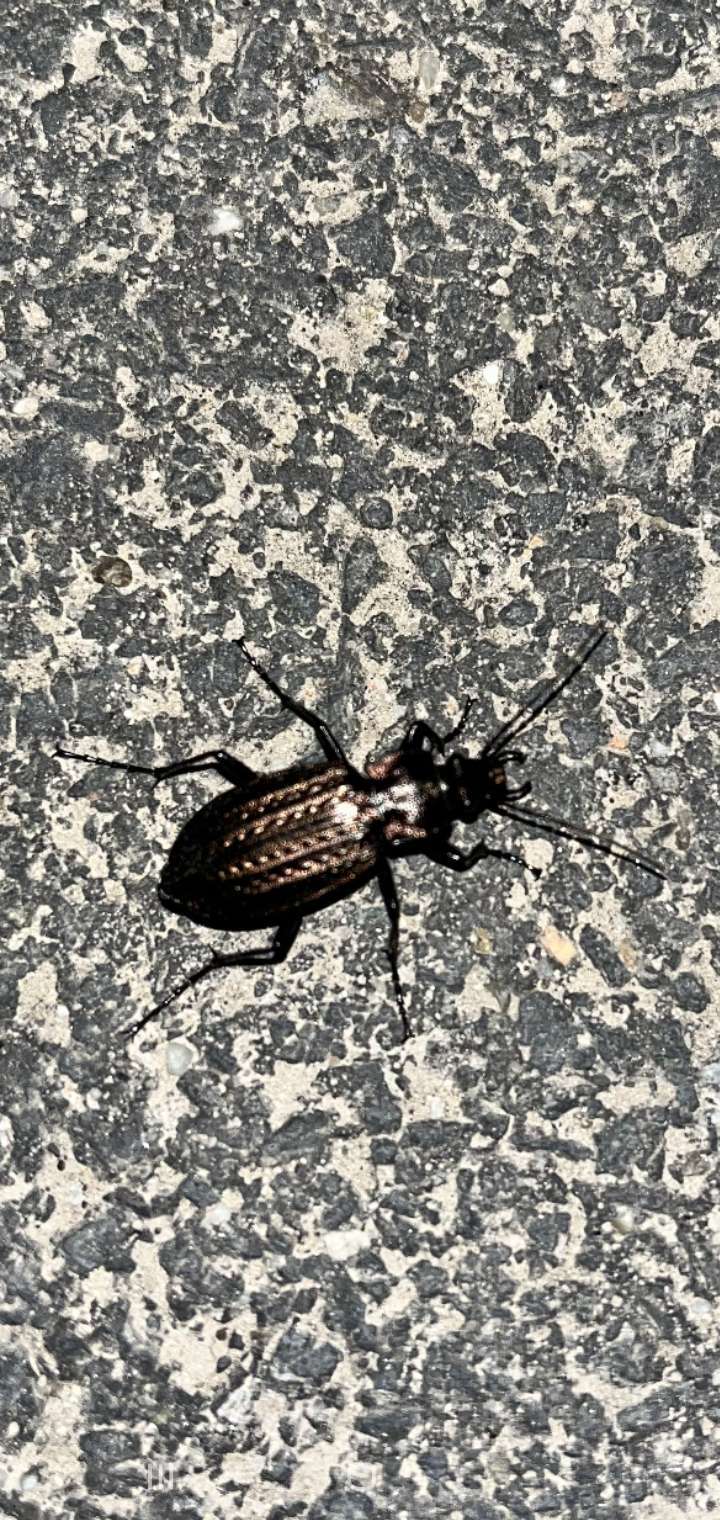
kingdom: Animalia
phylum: Arthropoda
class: Insecta
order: Coleoptera
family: Carabidae
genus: Carabus
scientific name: Carabus granulatus
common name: Granulate ground beetle
